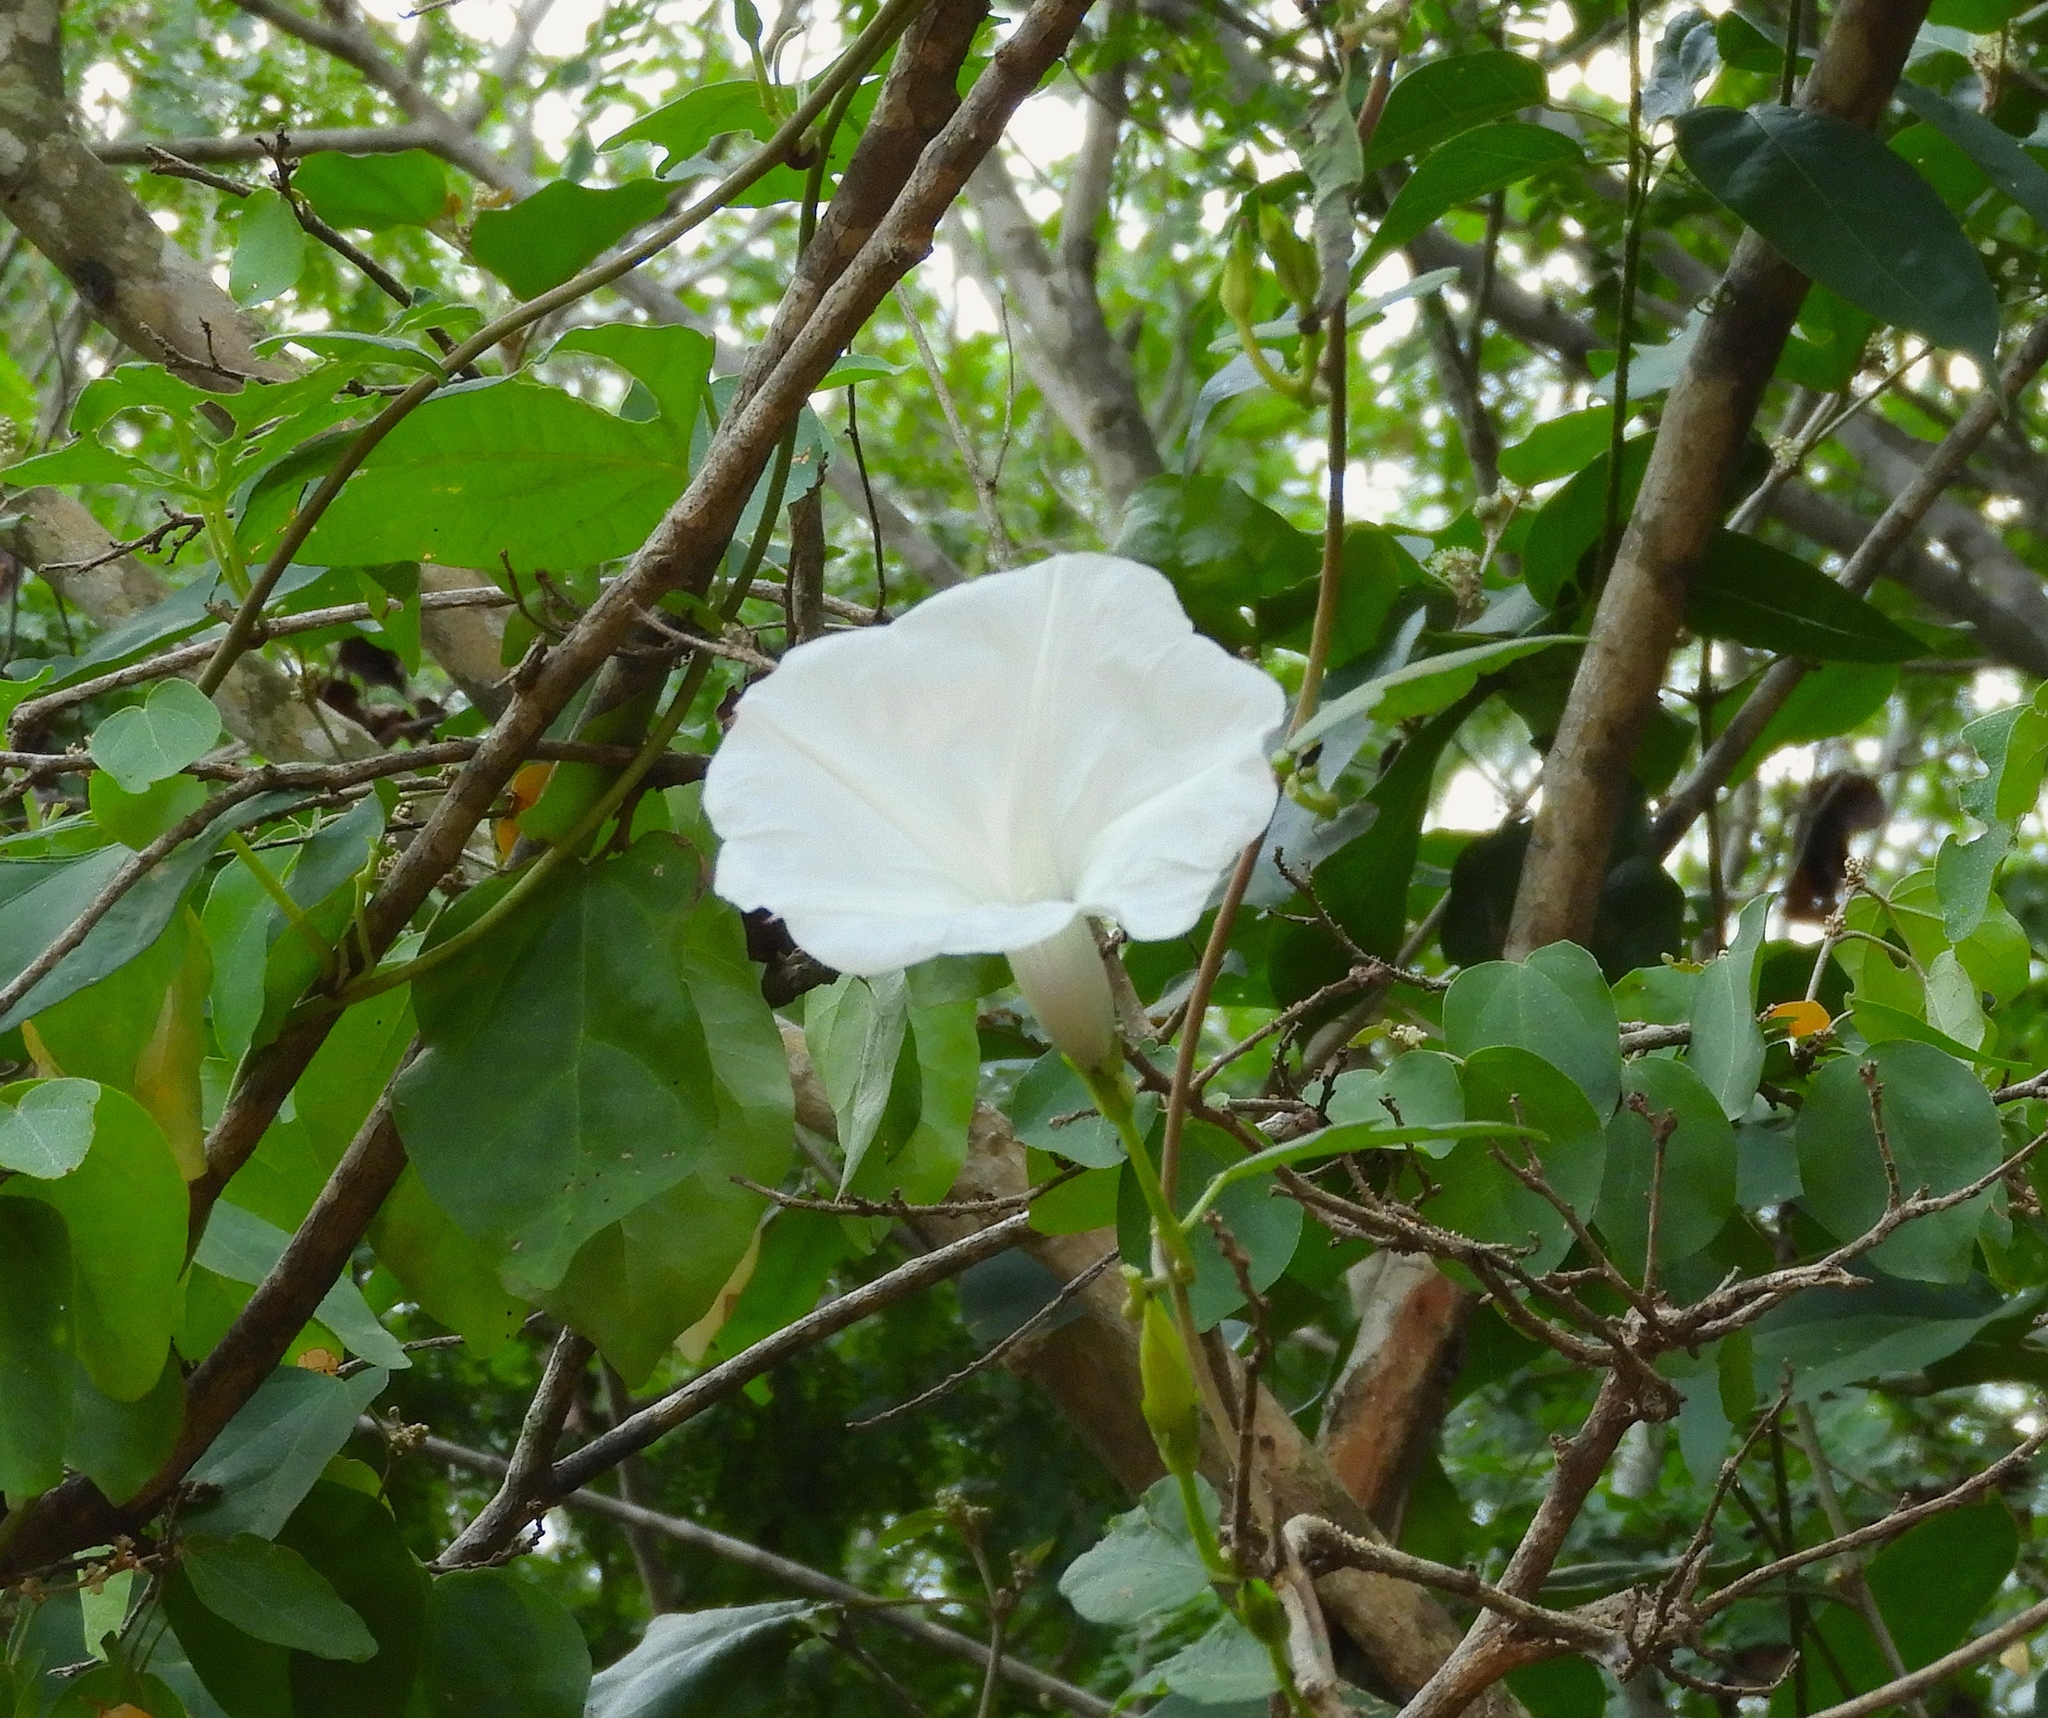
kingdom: Plantae
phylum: Tracheophyta
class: Magnoliopsida
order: Solanales
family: Convolvulaceae
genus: Ipomoea
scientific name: Ipomoea scopulorum
